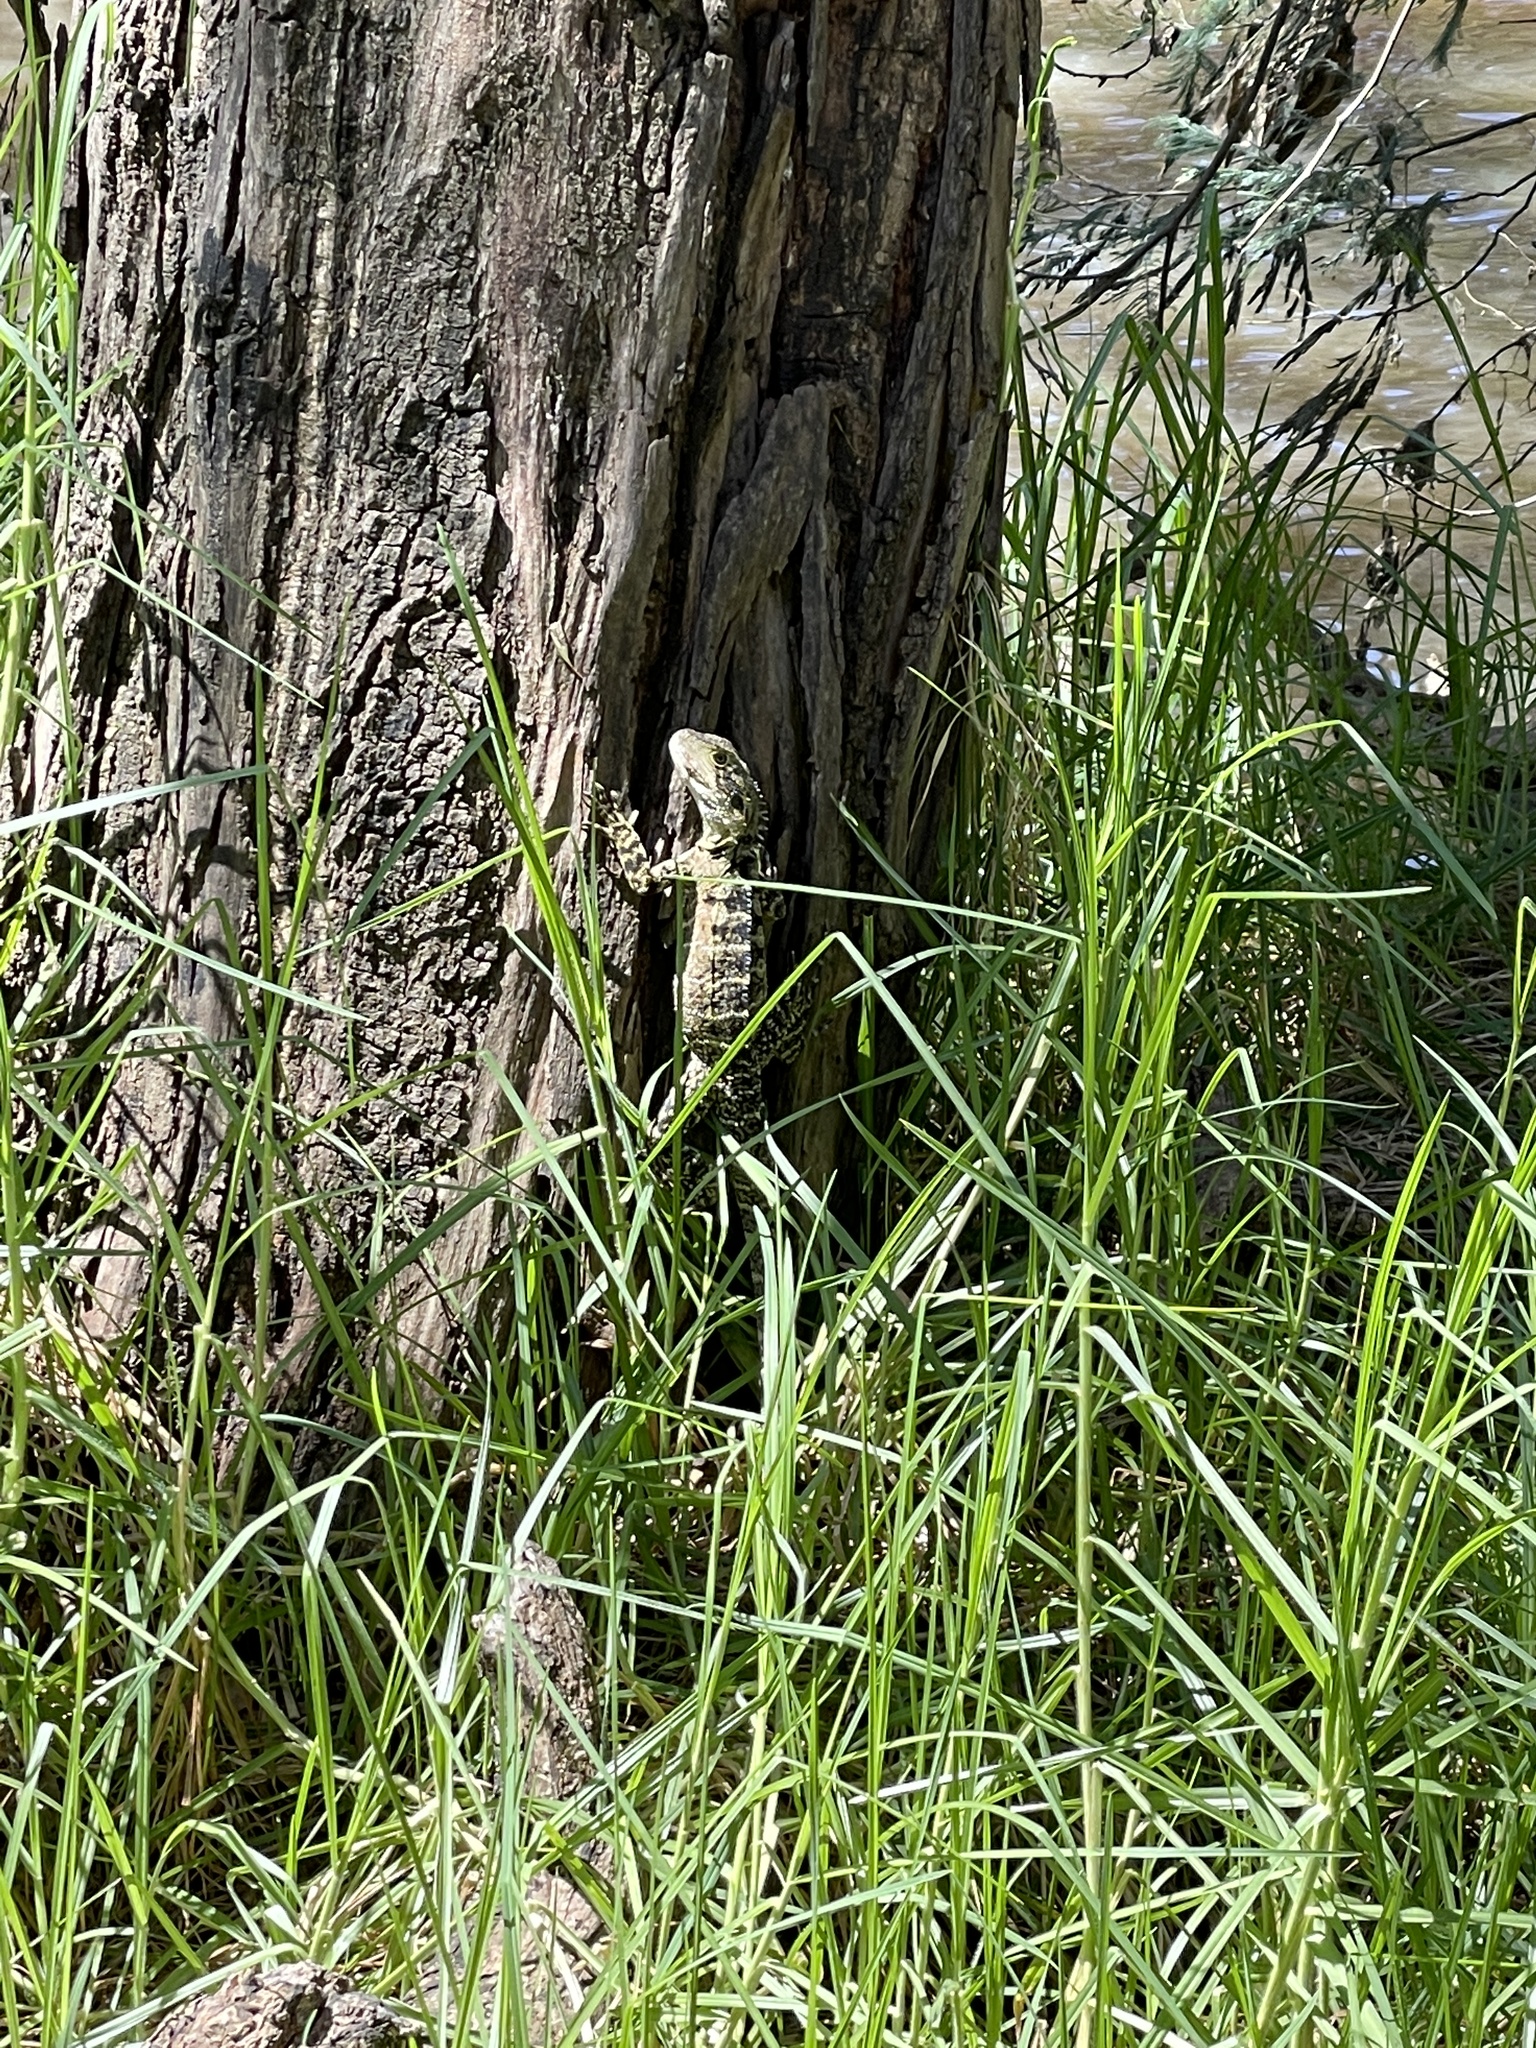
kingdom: Animalia
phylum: Chordata
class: Squamata
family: Agamidae
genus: Intellagama
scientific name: Intellagama lesueurii
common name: Eastern water dragon
